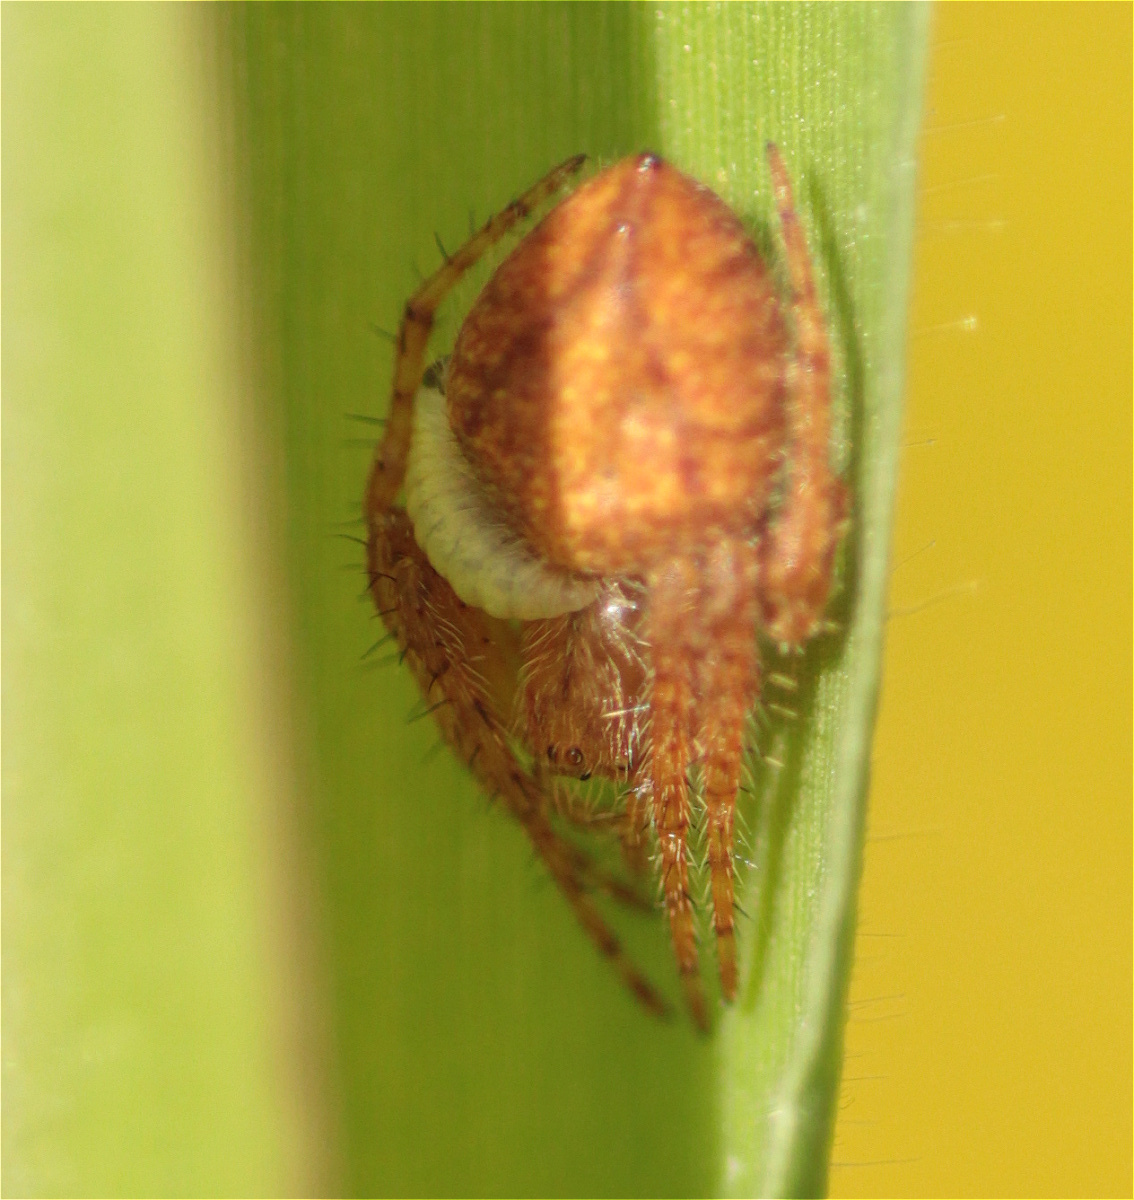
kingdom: Animalia
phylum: Arthropoda
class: Arachnida
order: Araneae
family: Araneidae
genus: Eriophora
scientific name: Eriophora edax
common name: Orb weavers
